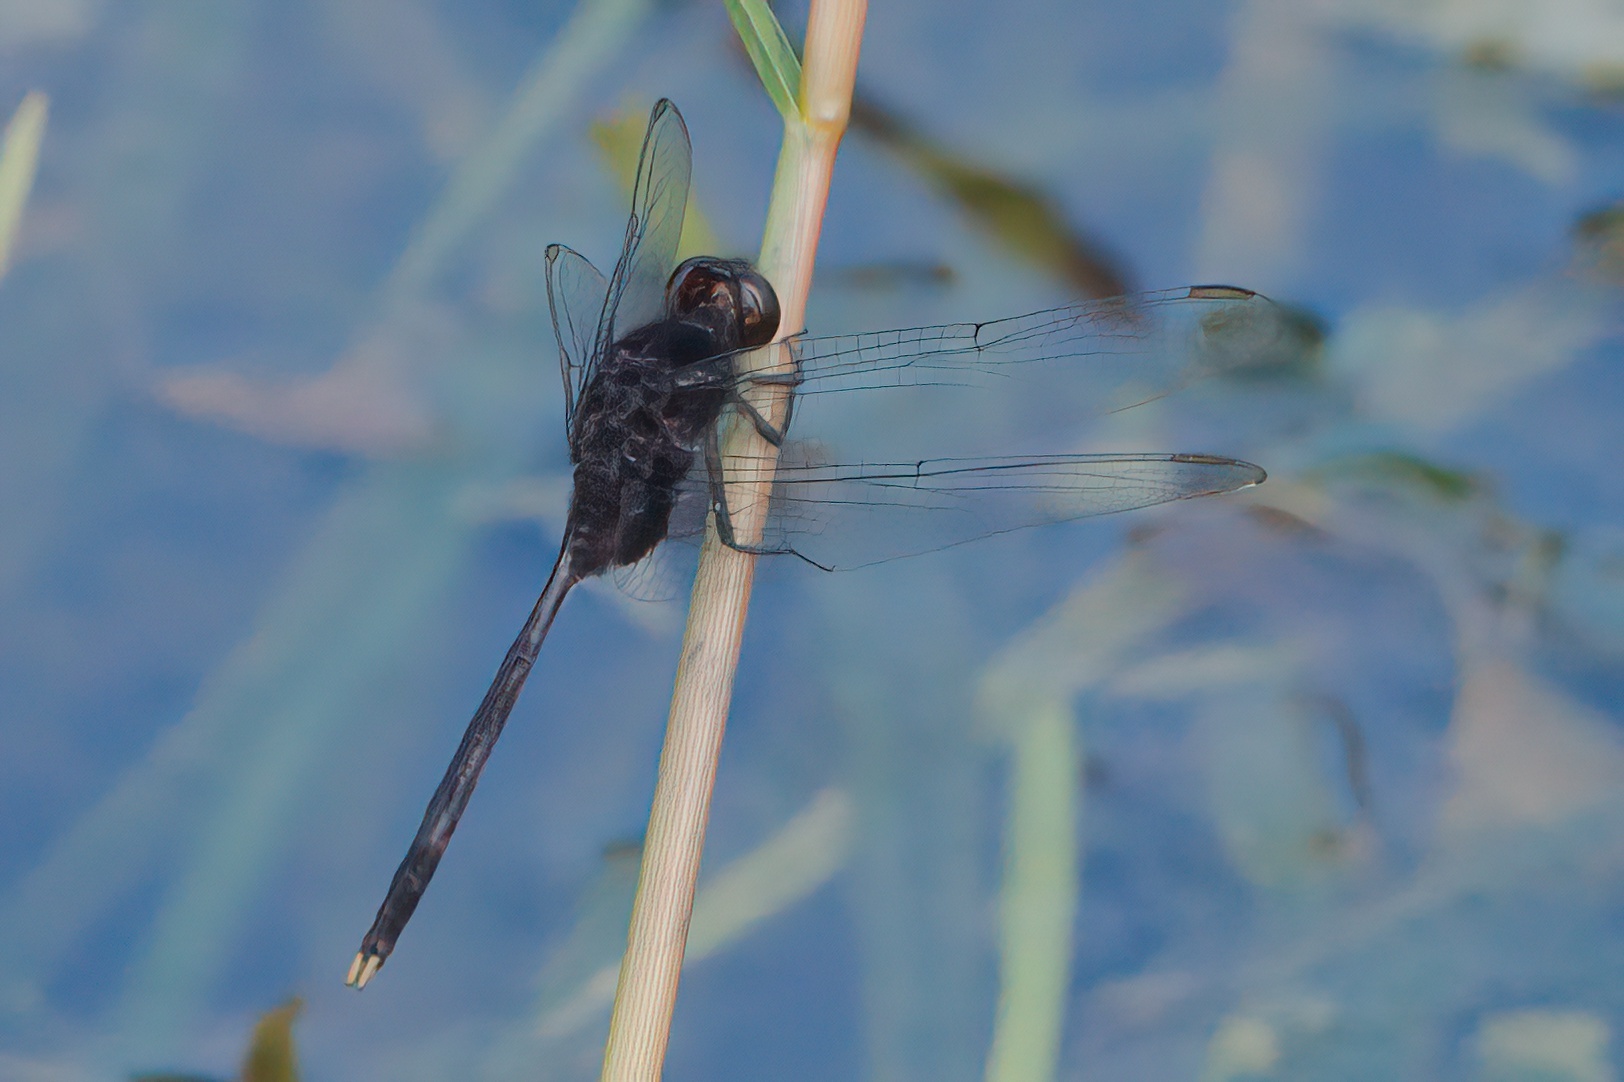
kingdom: Animalia
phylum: Arthropoda
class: Insecta
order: Odonata
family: Libellulidae
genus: Erythemis
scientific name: Erythemis plebeja
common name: Pin-tailed pondhawk
